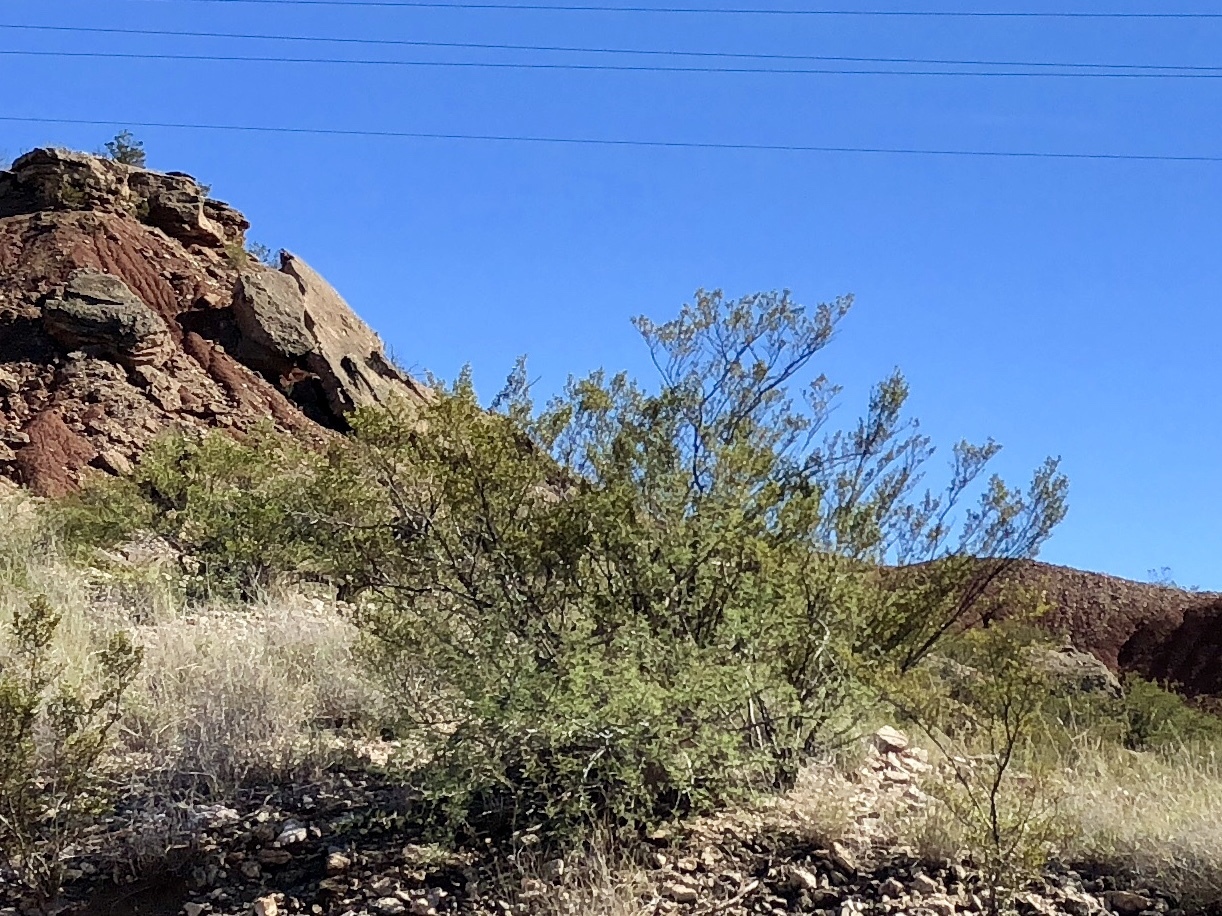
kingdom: Plantae
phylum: Tracheophyta
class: Magnoliopsida
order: Zygophyllales
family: Zygophyllaceae
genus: Larrea
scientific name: Larrea tridentata
